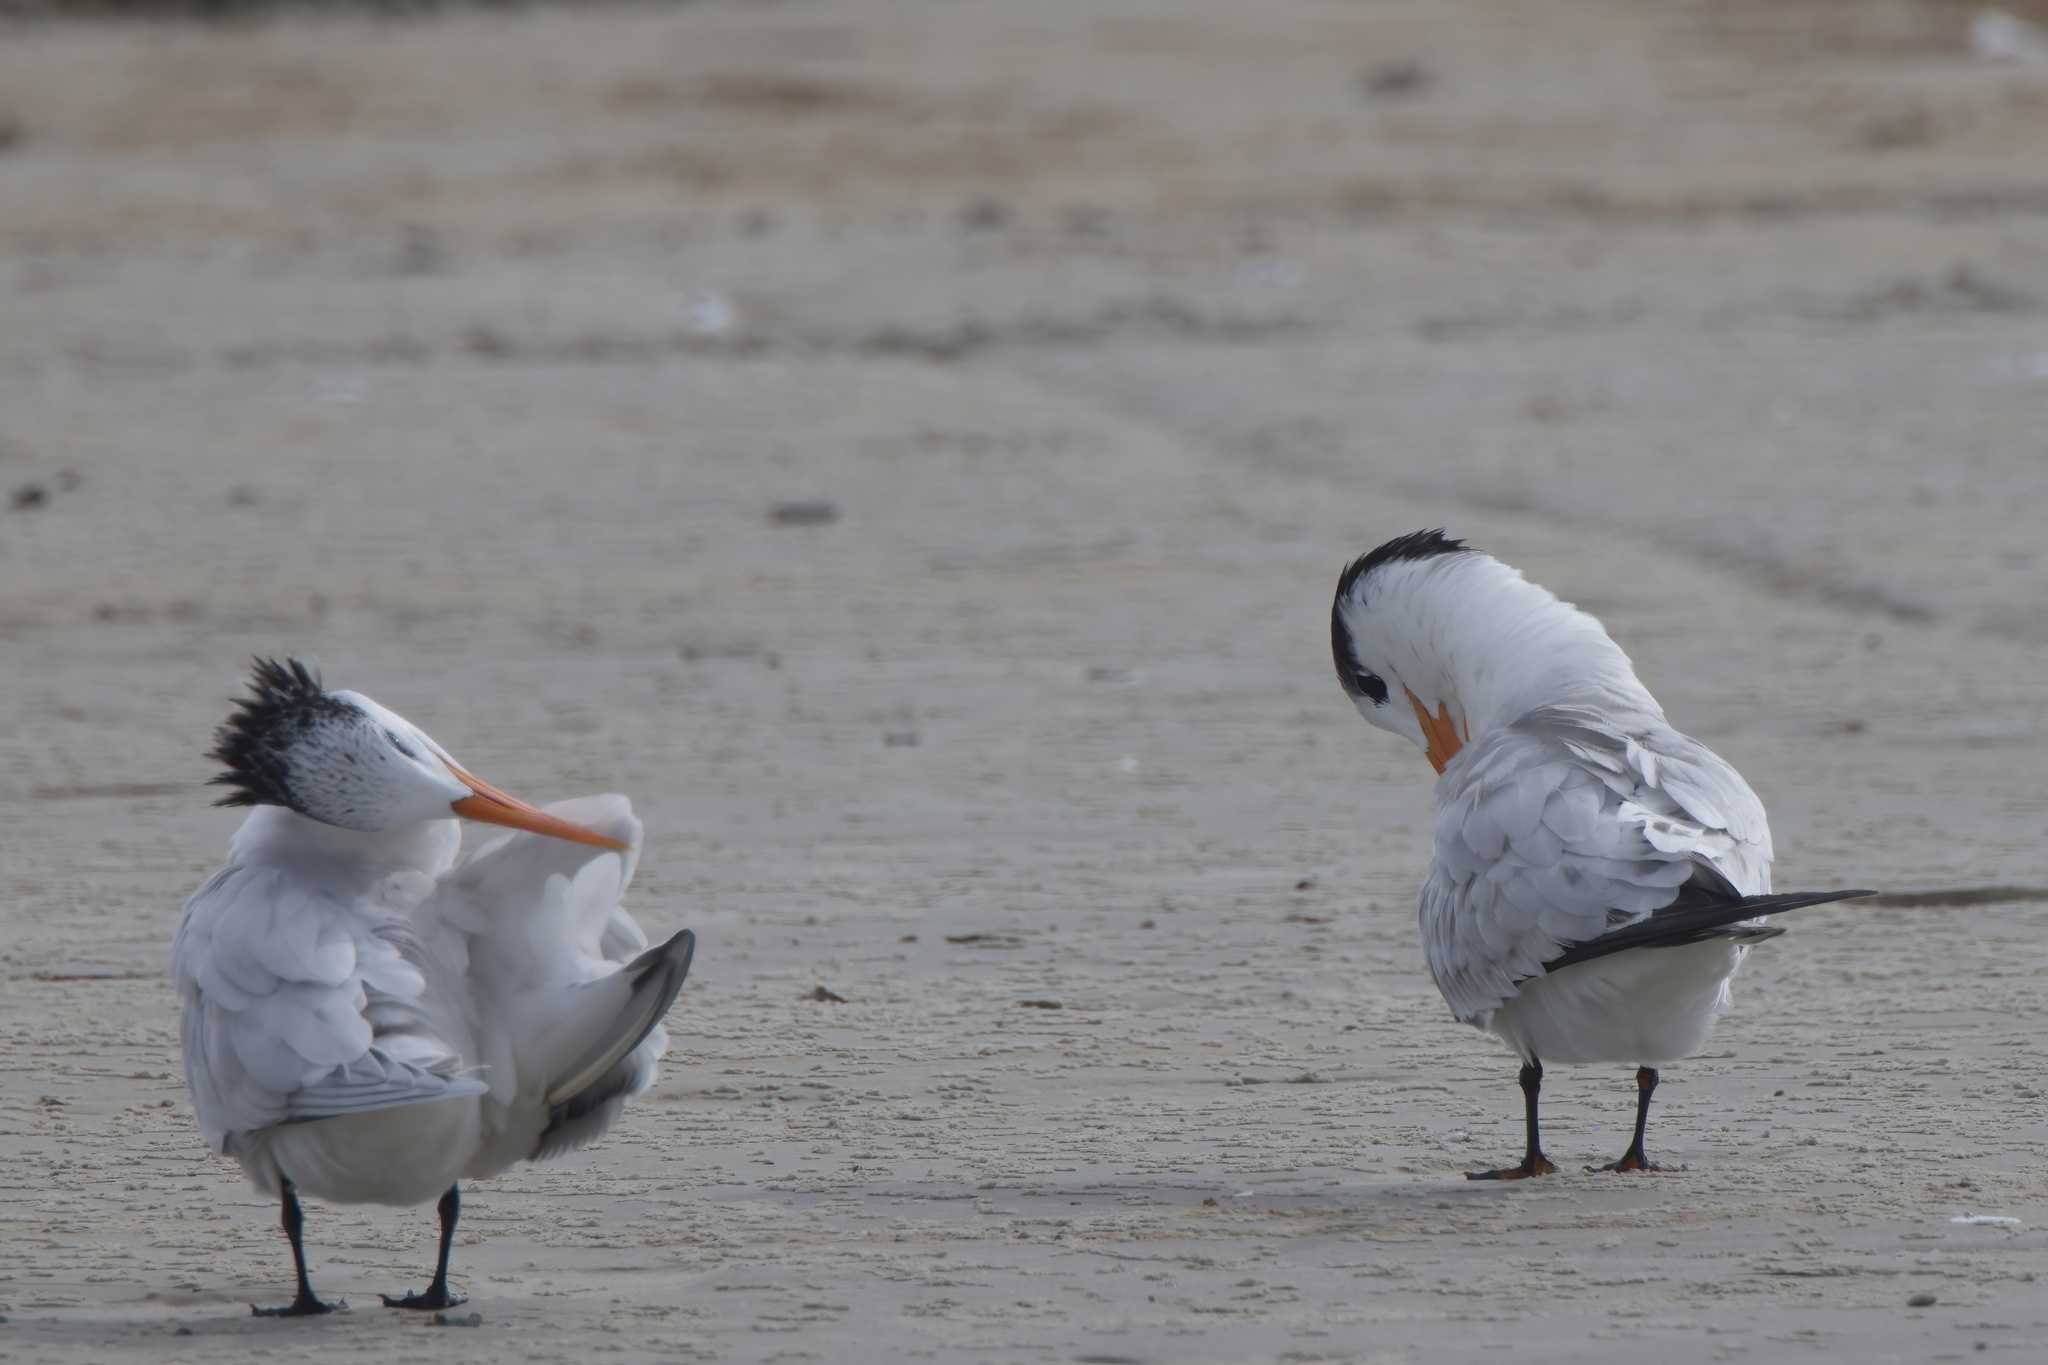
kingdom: Animalia
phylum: Chordata
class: Aves
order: Charadriiformes
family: Laridae
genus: Thalasseus
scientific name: Thalasseus maximus
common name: Royal tern
